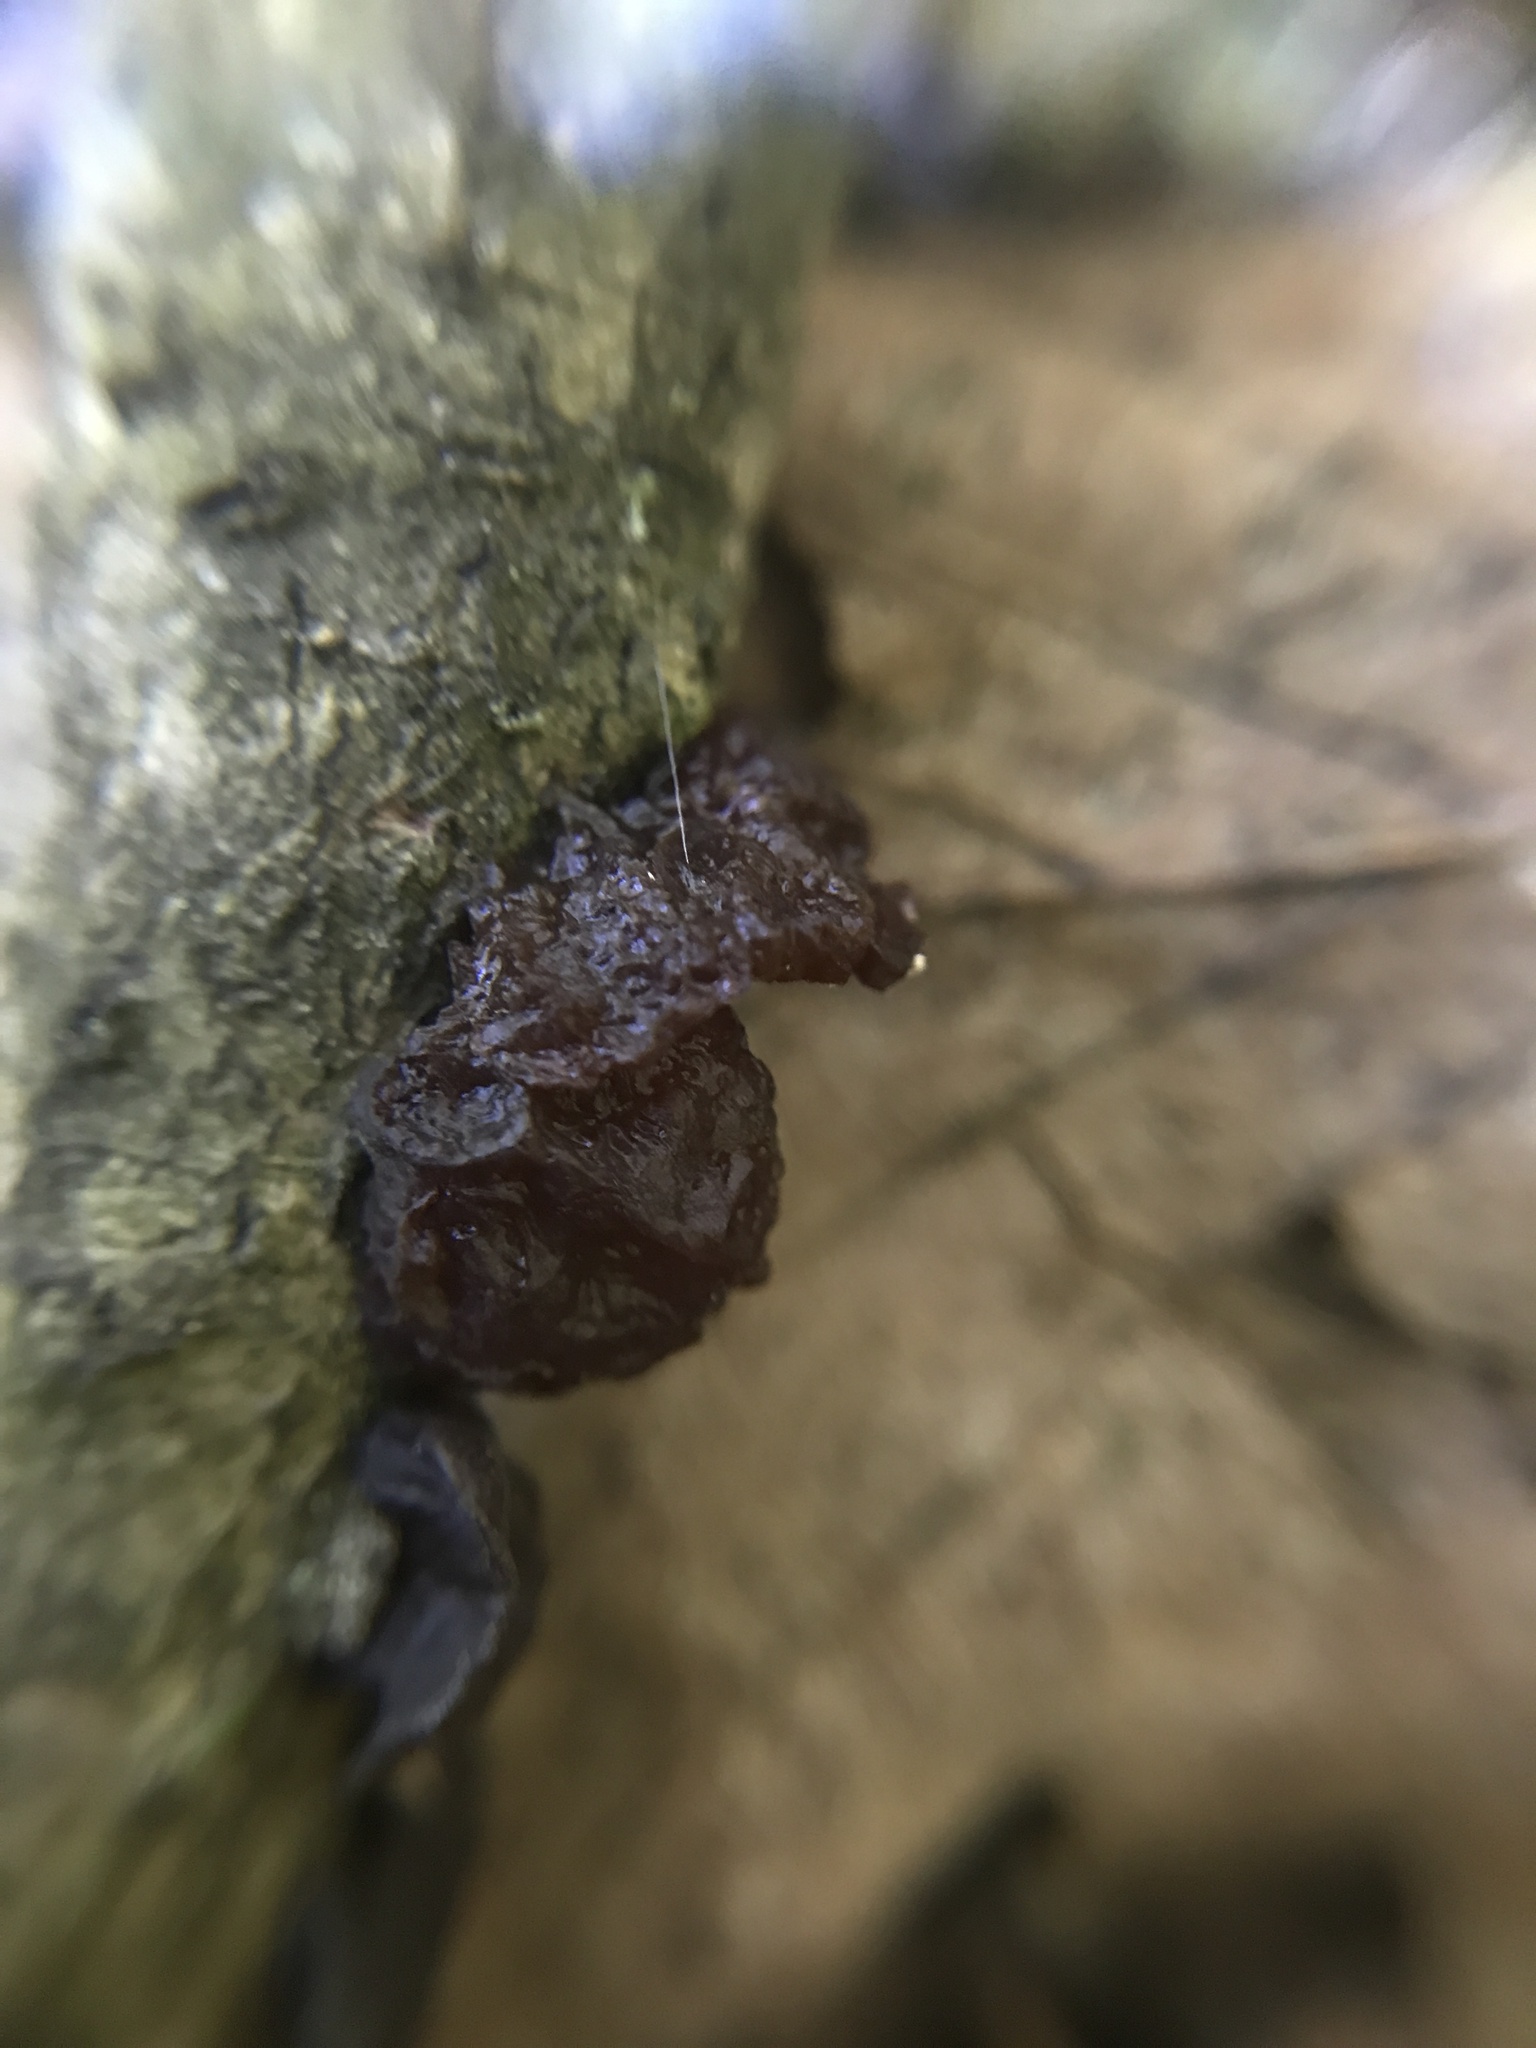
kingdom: Fungi
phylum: Basidiomycota
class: Agaricomycetes
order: Auriculariales
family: Auriculariaceae
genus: Exidia
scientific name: Exidia
